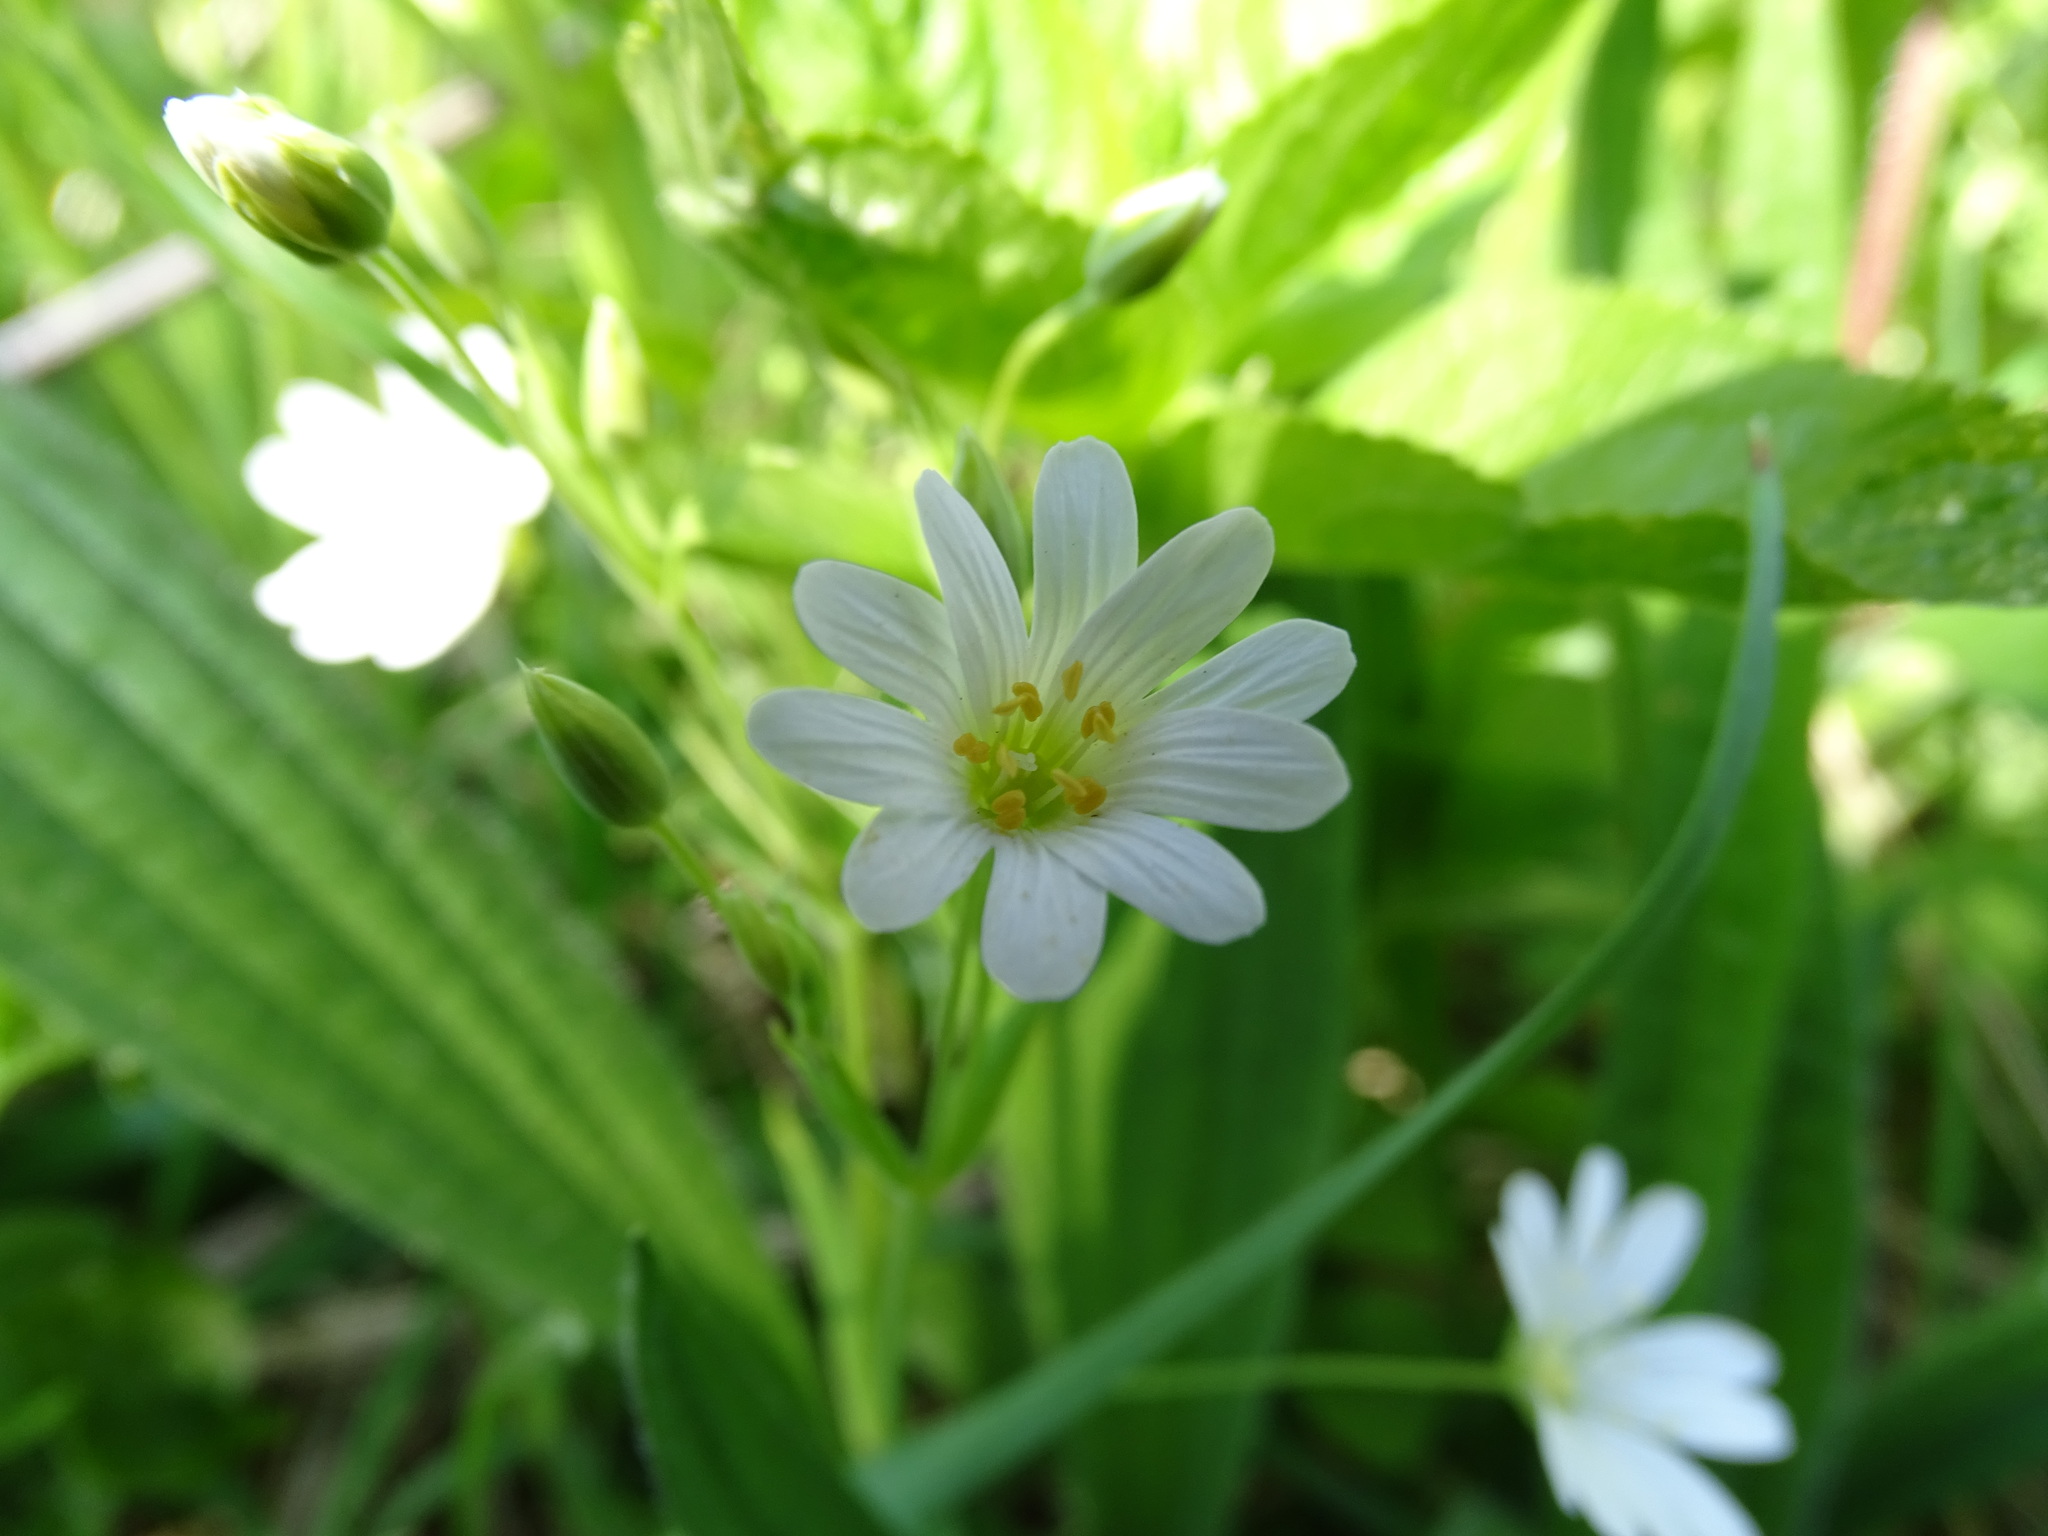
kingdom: Plantae
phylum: Tracheophyta
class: Magnoliopsida
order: Caryophyllales
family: Caryophyllaceae
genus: Rabelera
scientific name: Rabelera holostea
